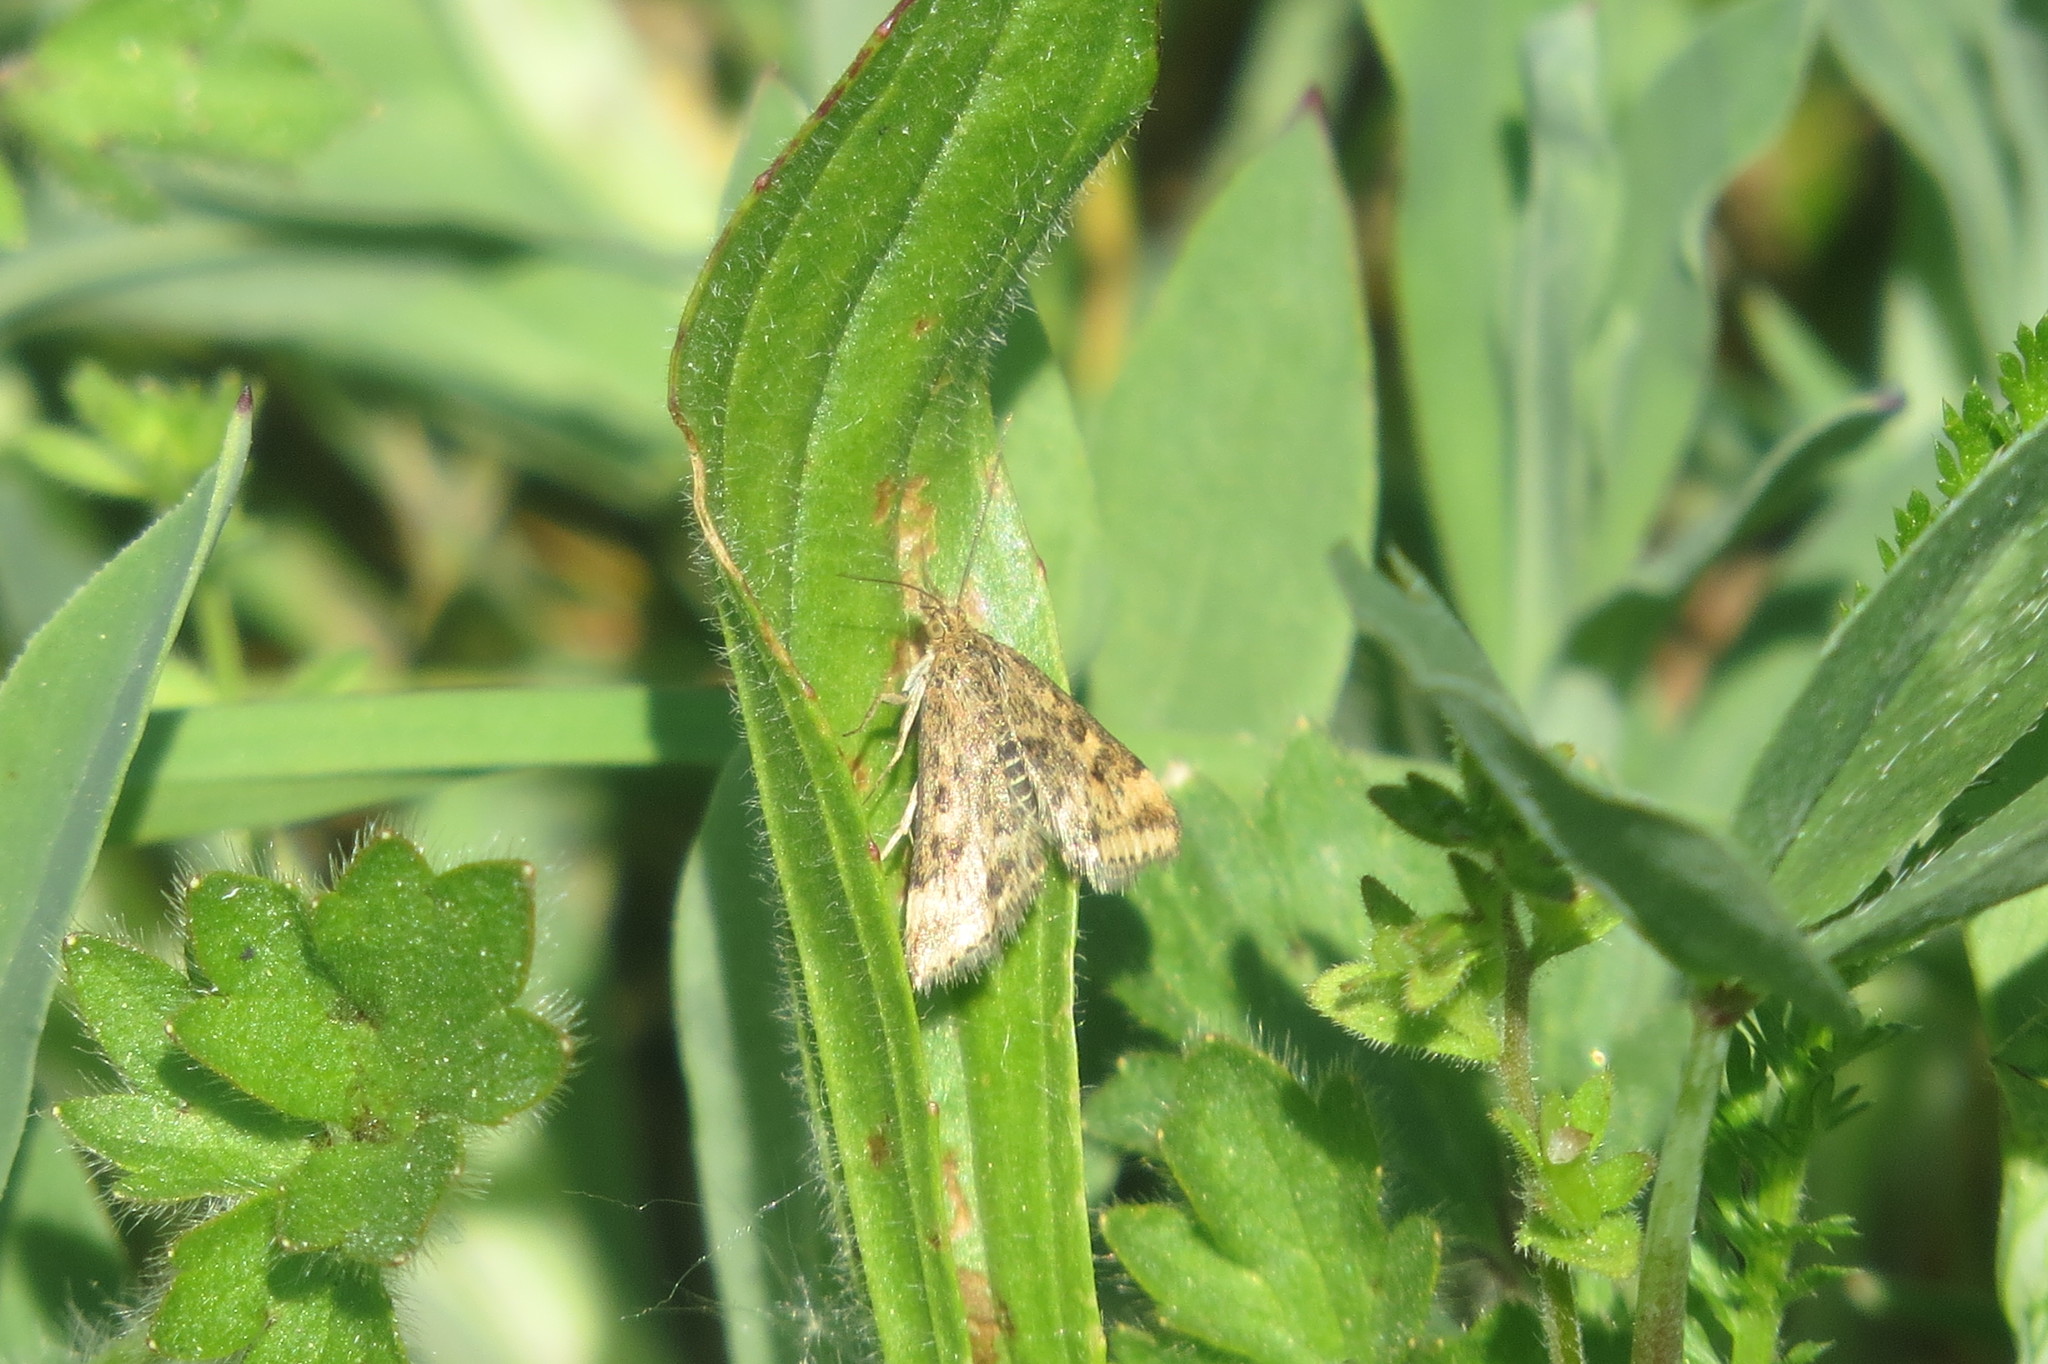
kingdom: Animalia
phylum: Arthropoda
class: Insecta
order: Lepidoptera
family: Crambidae
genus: Pyrausta
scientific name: Pyrausta despicata
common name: Straw-barred pearl
